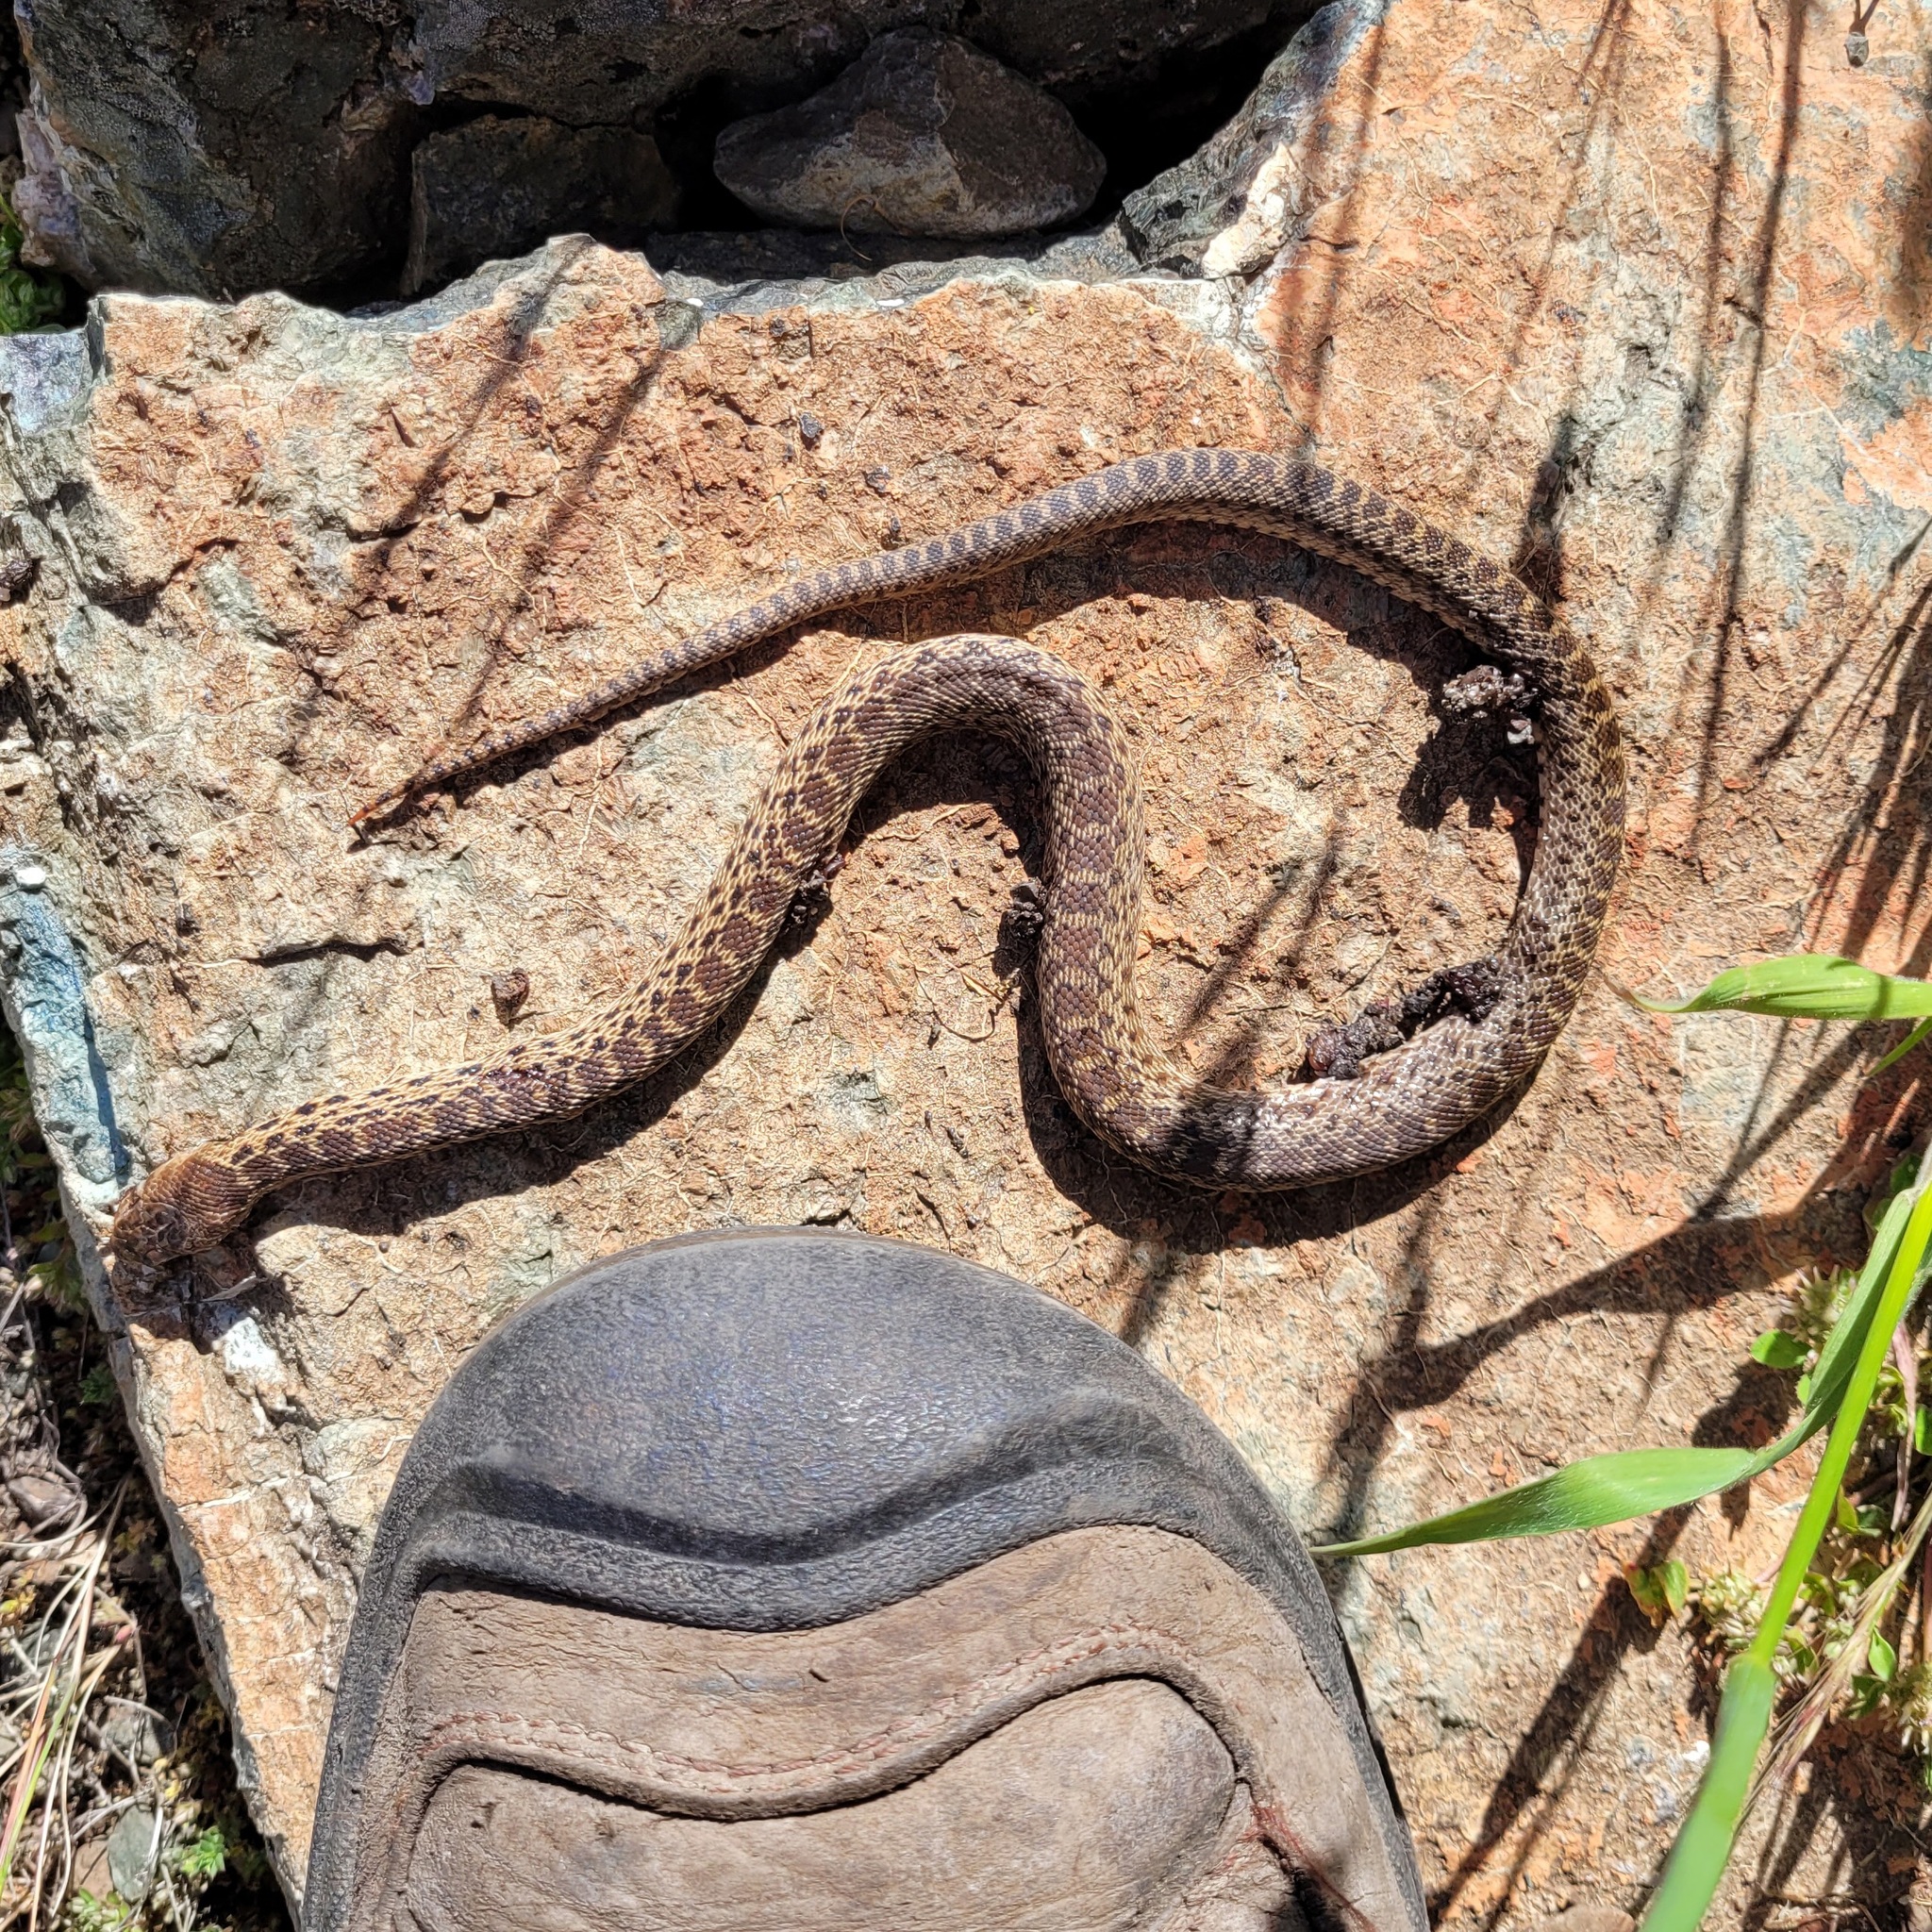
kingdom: Animalia
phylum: Chordata
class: Squamata
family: Colubridae
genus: Pituophis
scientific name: Pituophis catenifer
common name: Gopher snake
